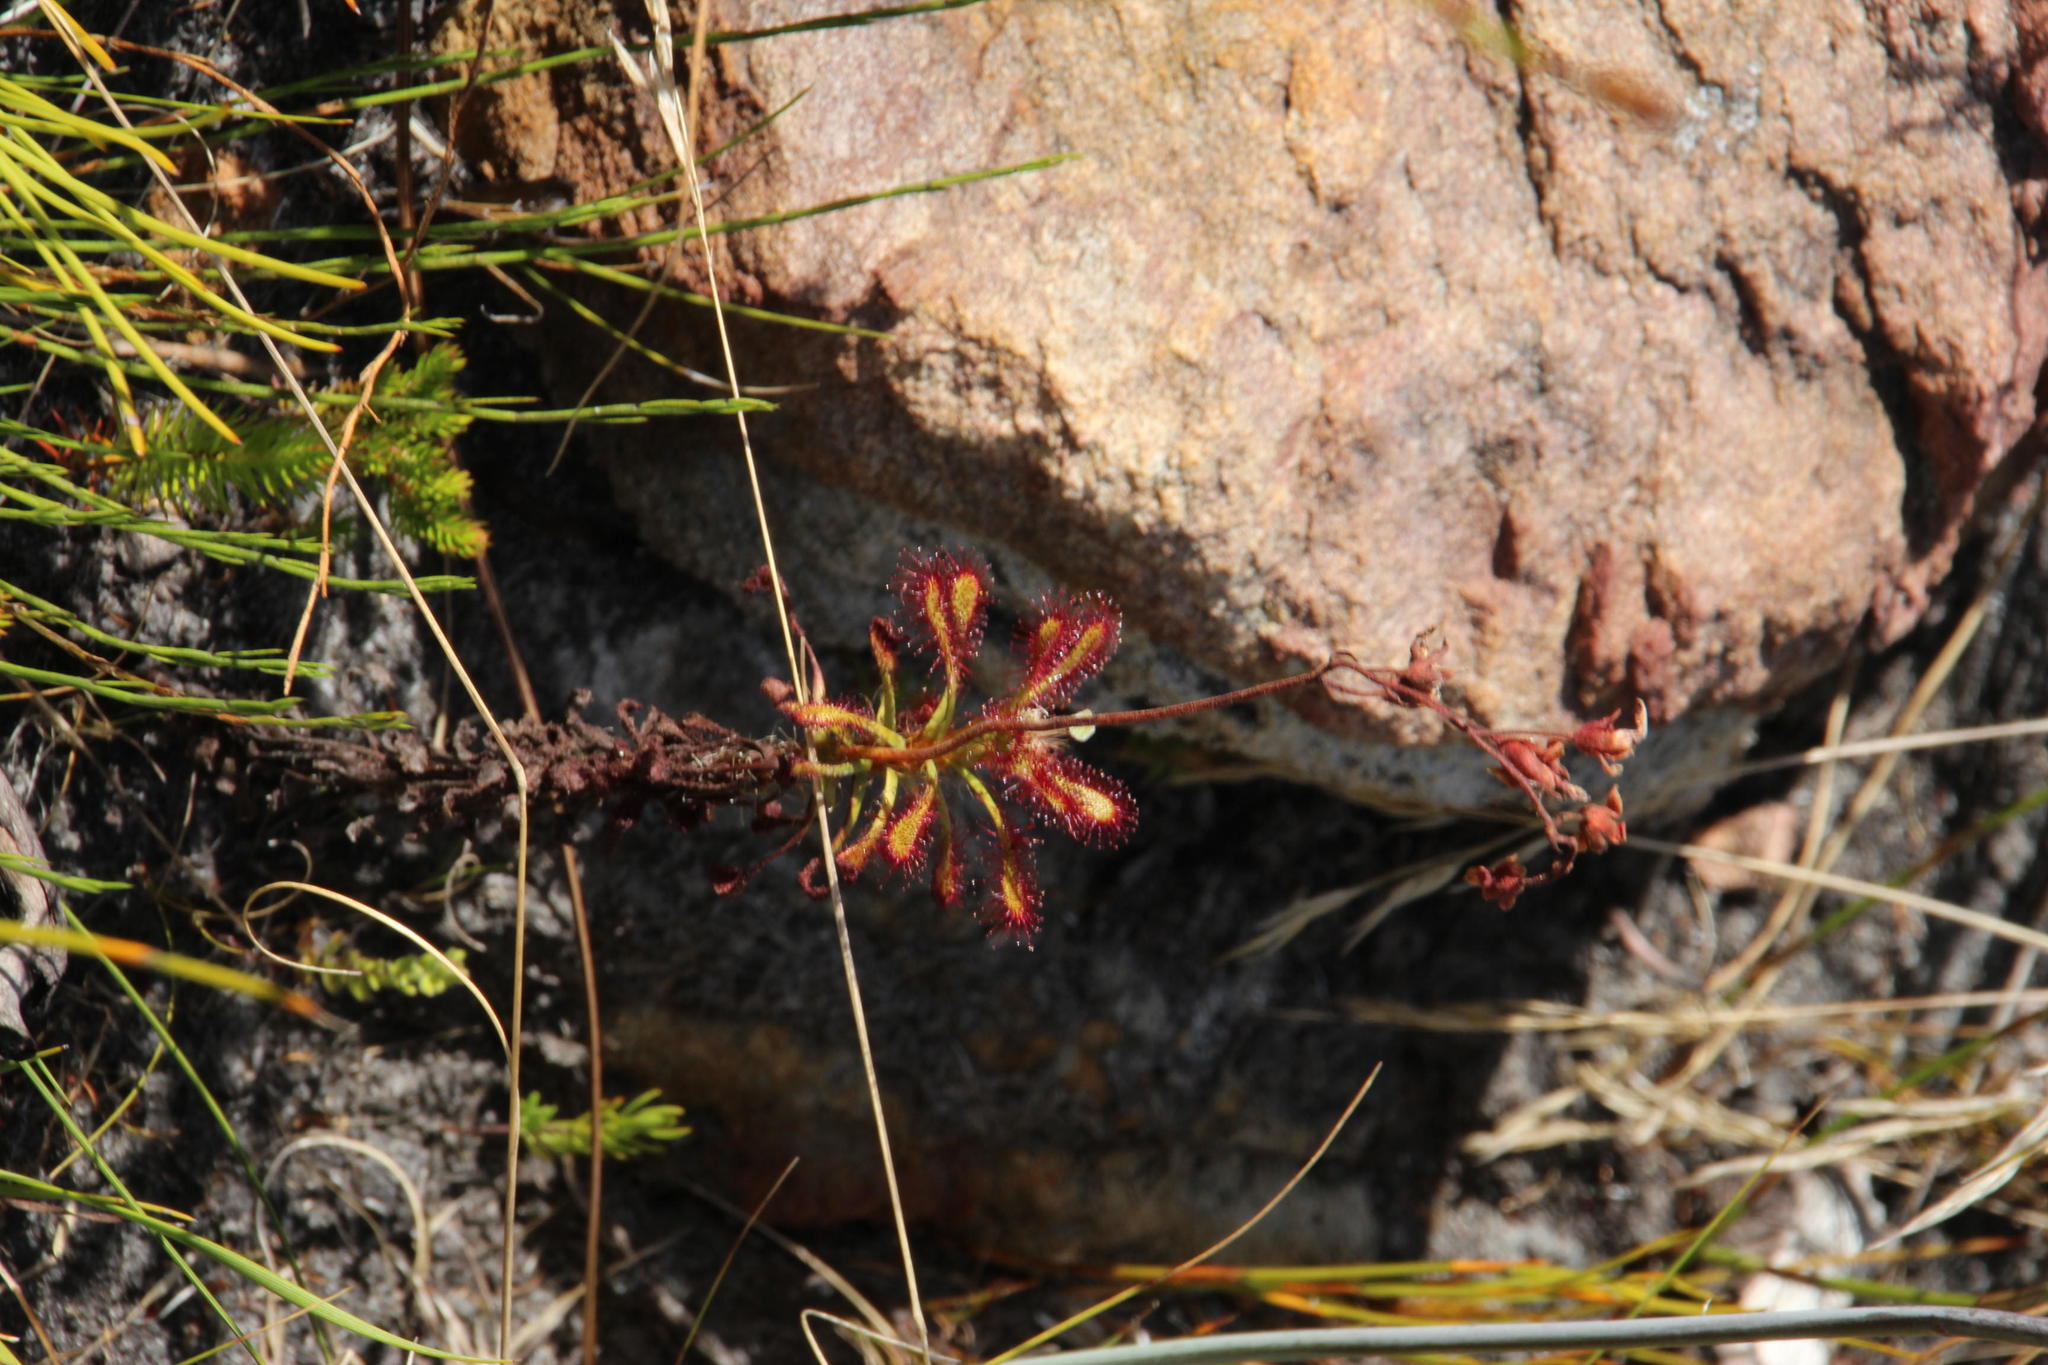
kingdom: Plantae
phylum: Tracheophyta
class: Magnoliopsida
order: Caryophyllales
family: Droseraceae
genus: Drosera
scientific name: Drosera glabripes
